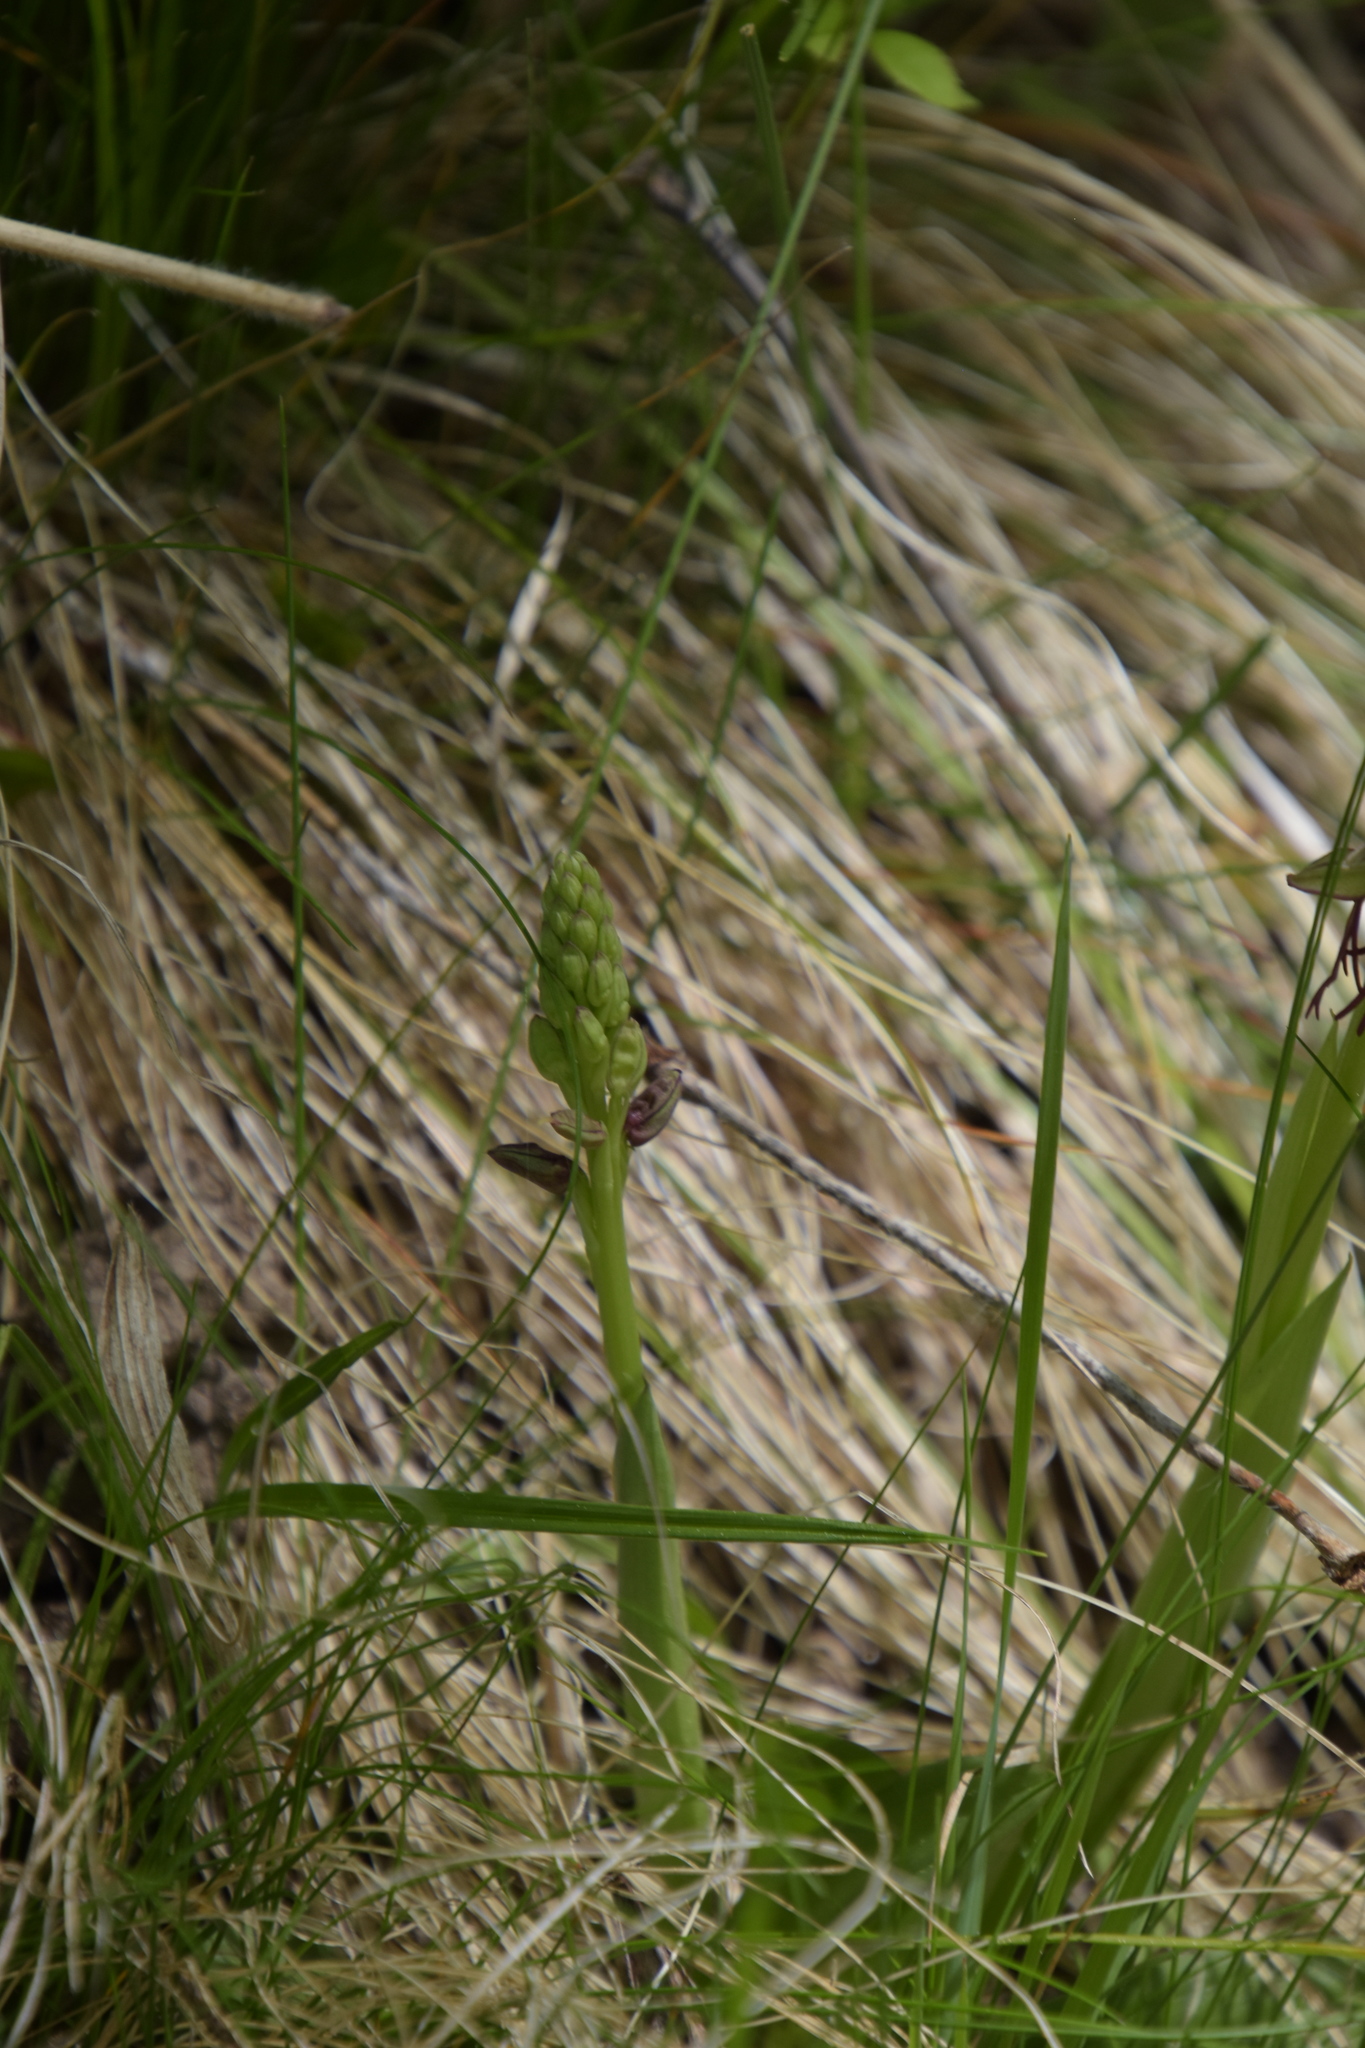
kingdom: Plantae
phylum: Tracheophyta
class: Liliopsida
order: Asparagales
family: Orchidaceae
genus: Orchis
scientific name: Orchis anthropophora
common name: Man orchid
